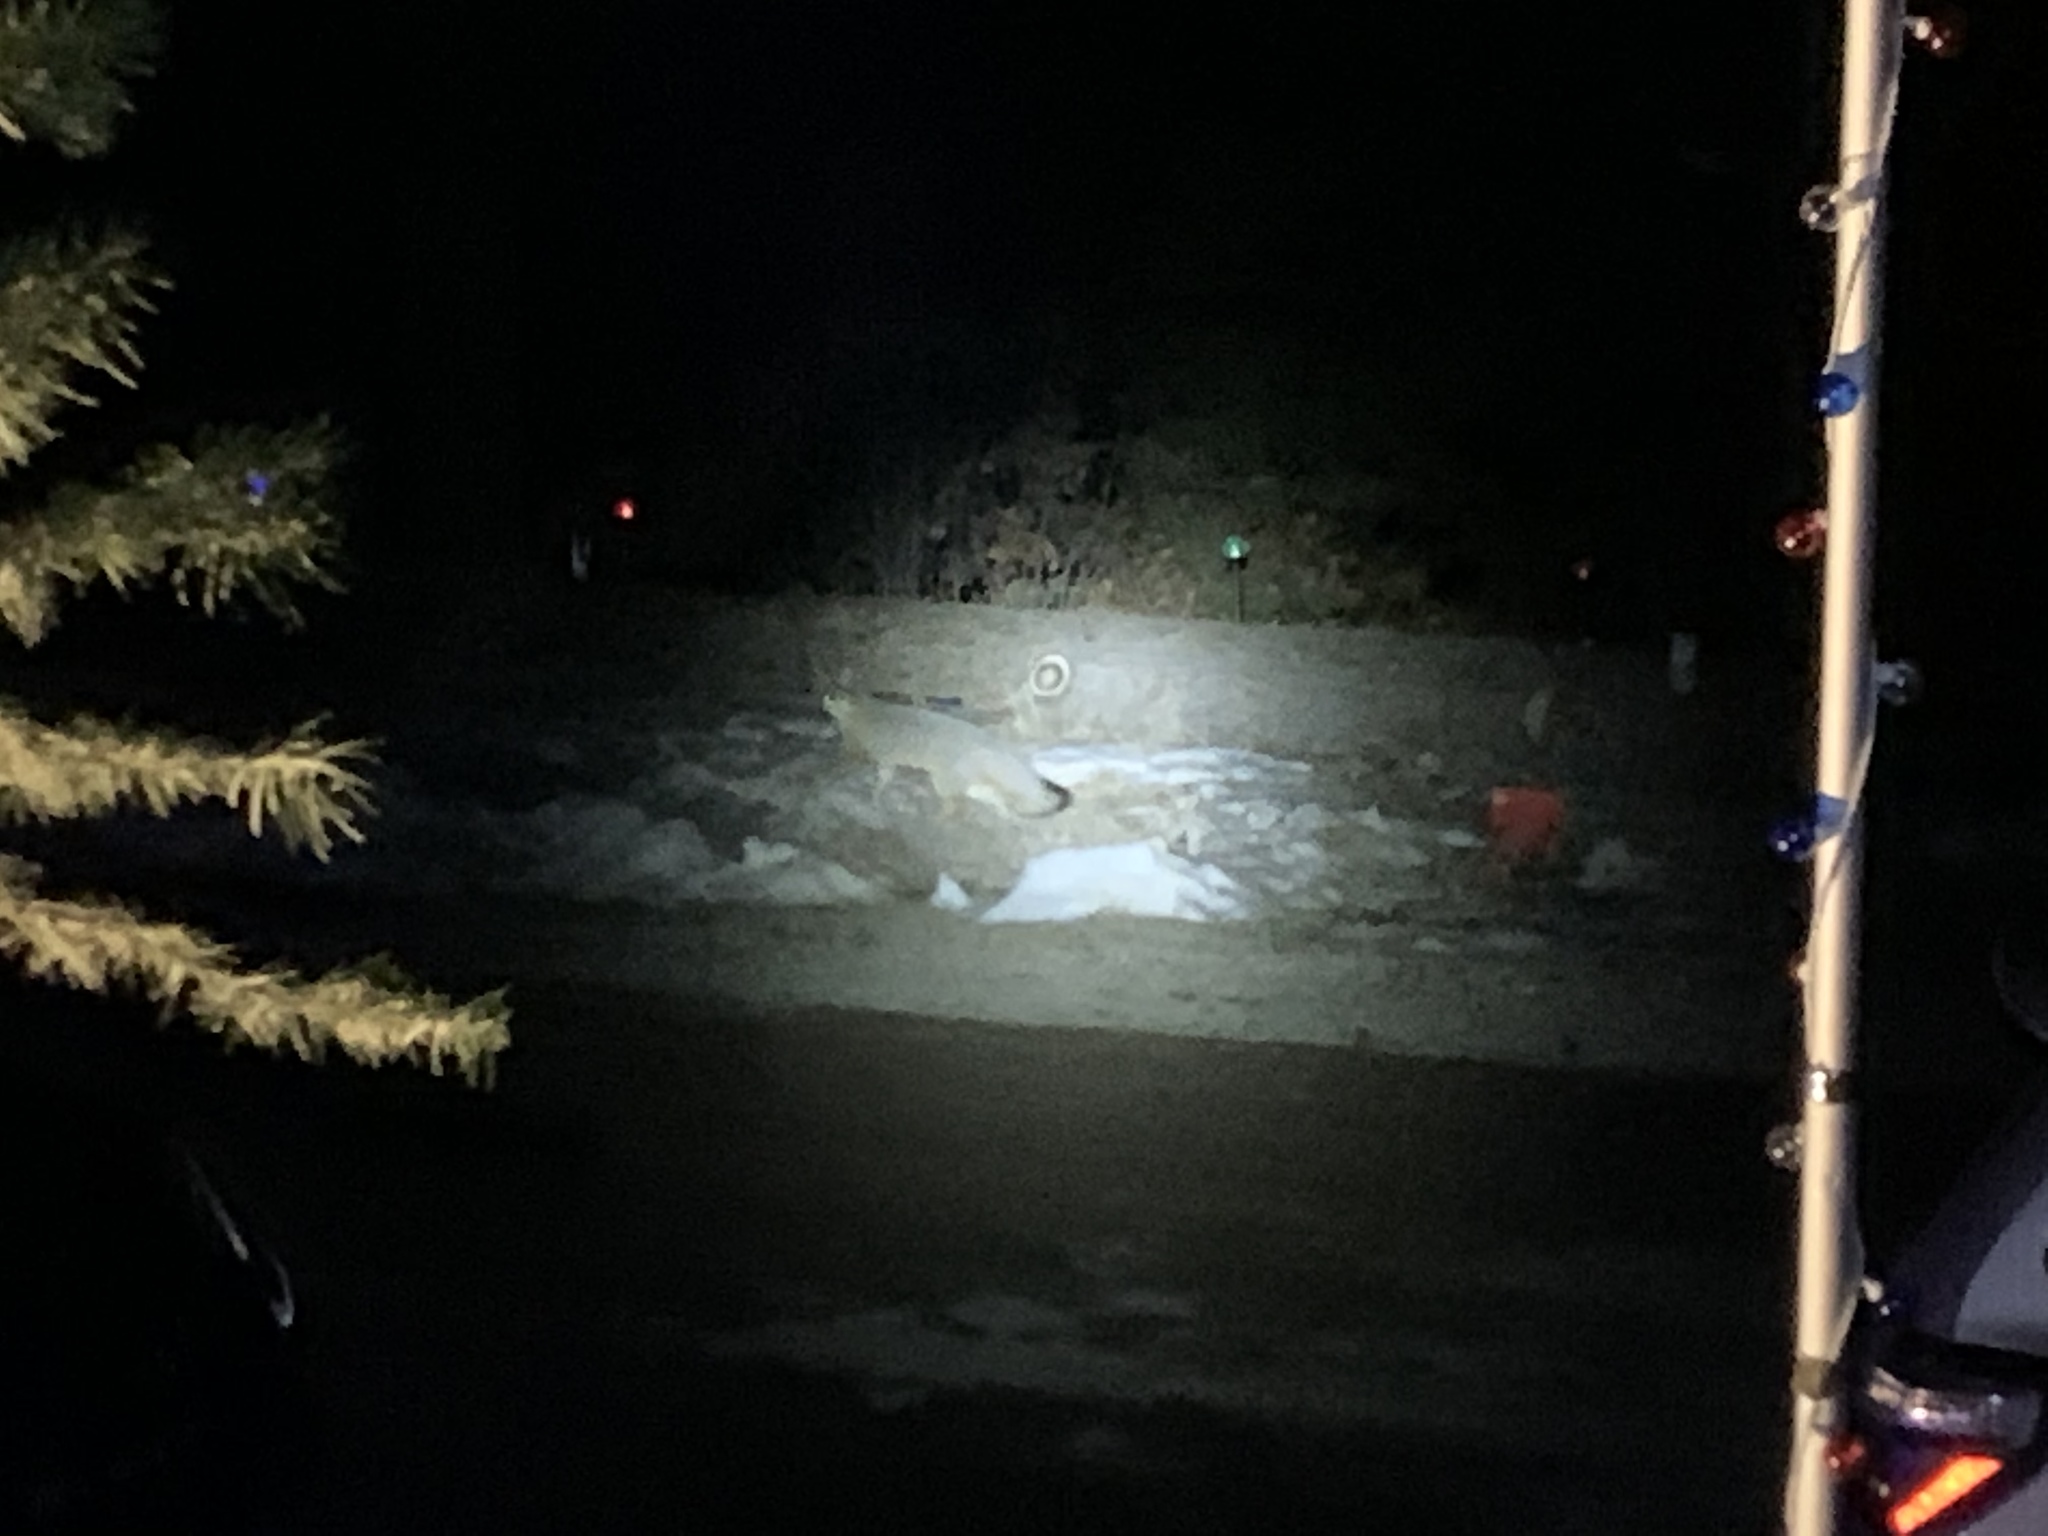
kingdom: Animalia
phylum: Chordata
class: Mammalia
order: Carnivora
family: Canidae
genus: Urocyon
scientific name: Urocyon cinereoargenteus
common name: Gray fox
